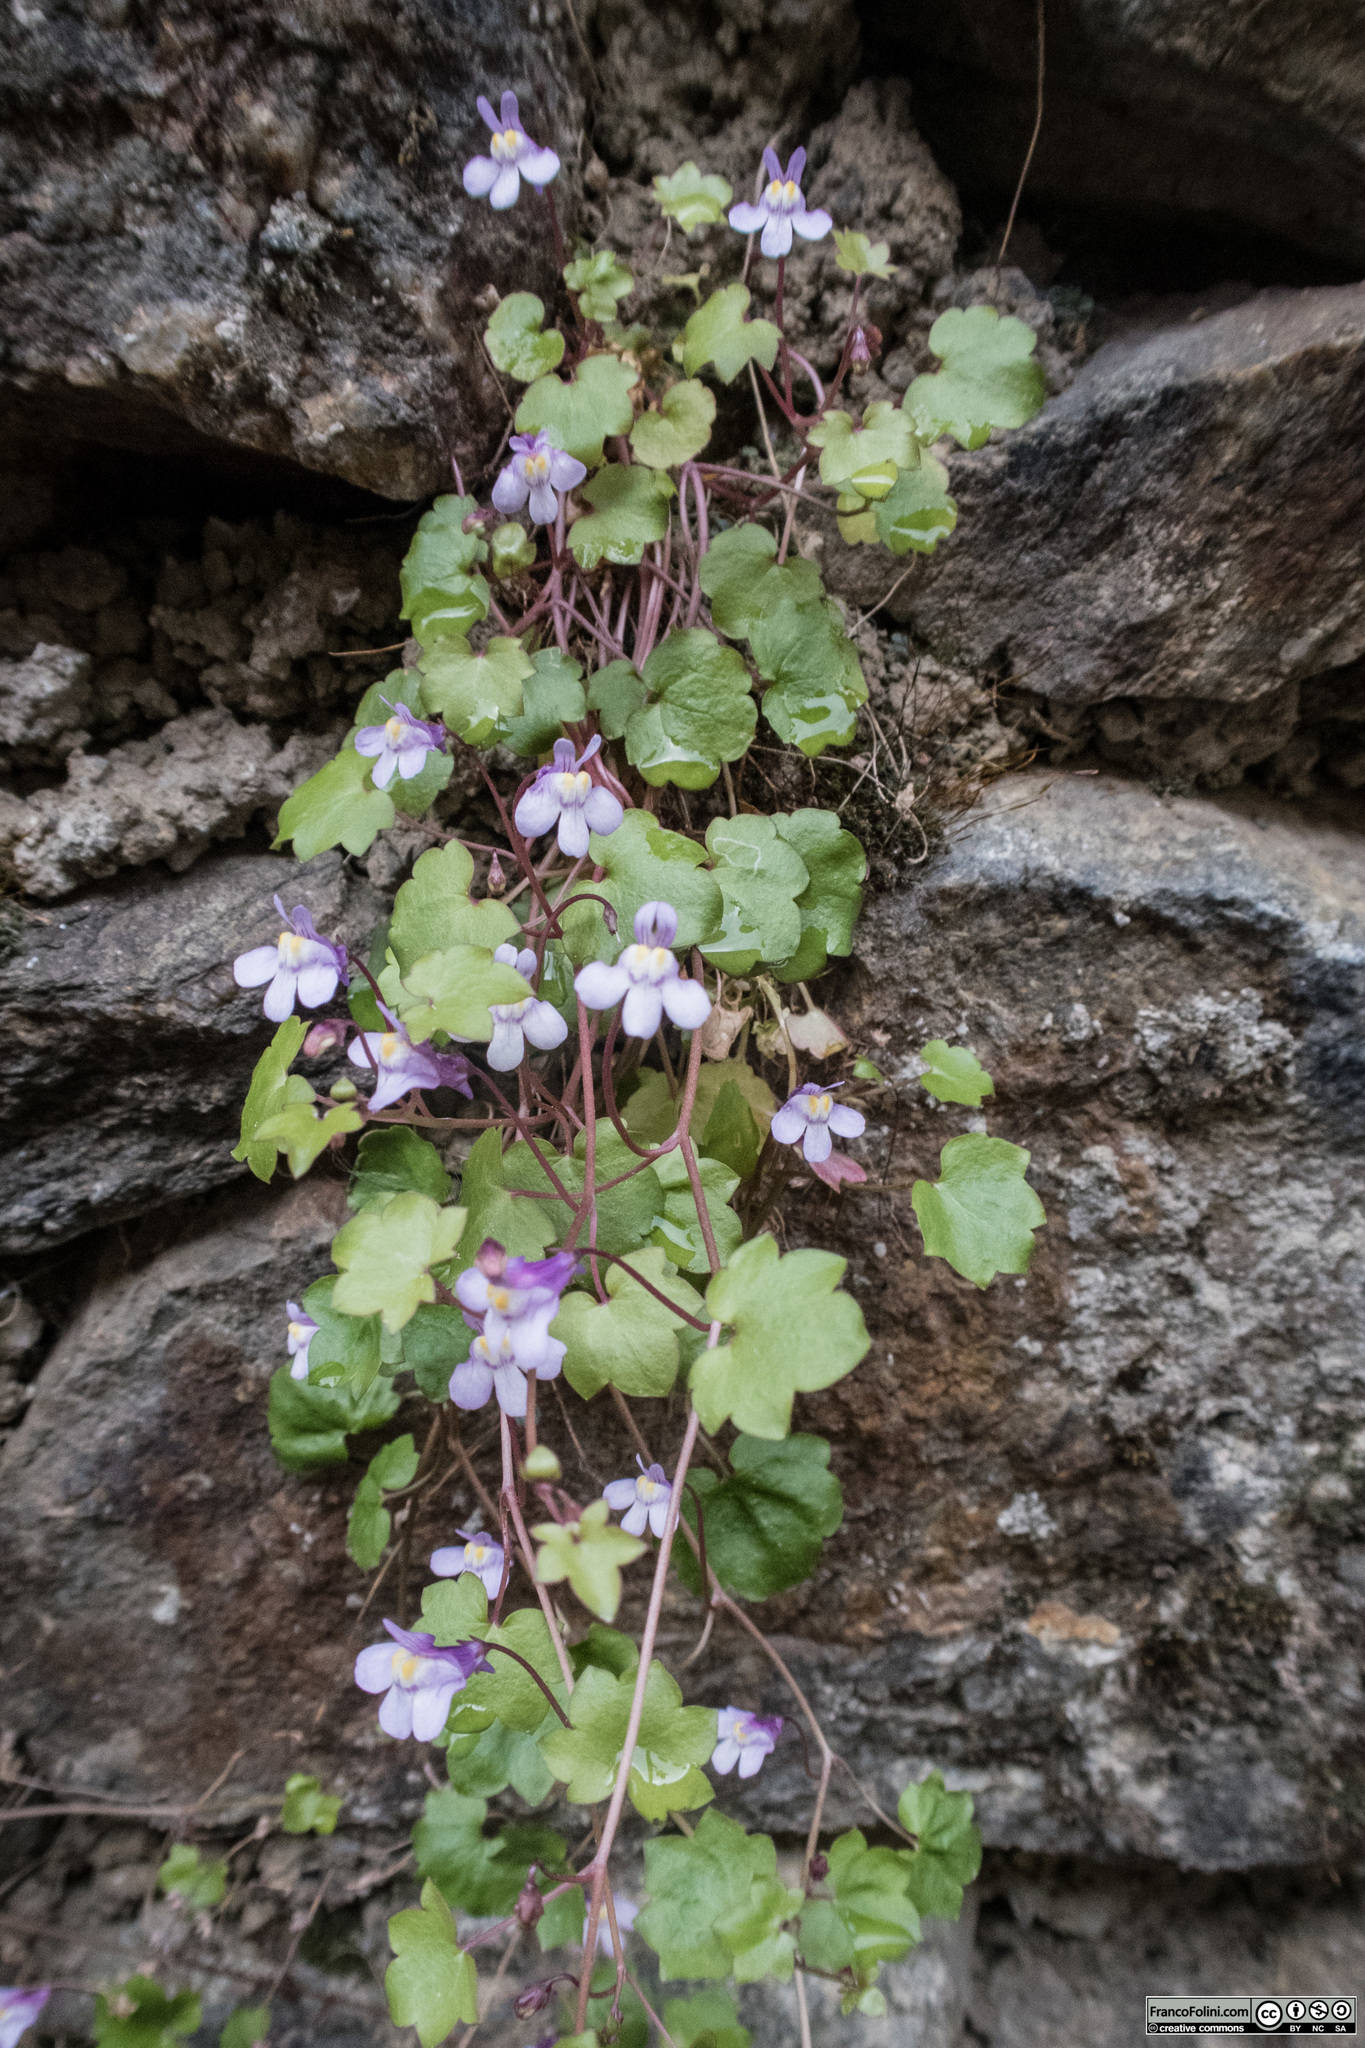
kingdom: Plantae
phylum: Tracheophyta
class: Magnoliopsida
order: Lamiales
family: Plantaginaceae
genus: Cymbalaria
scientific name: Cymbalaria muralis
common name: Ivy-leaved toadflax
